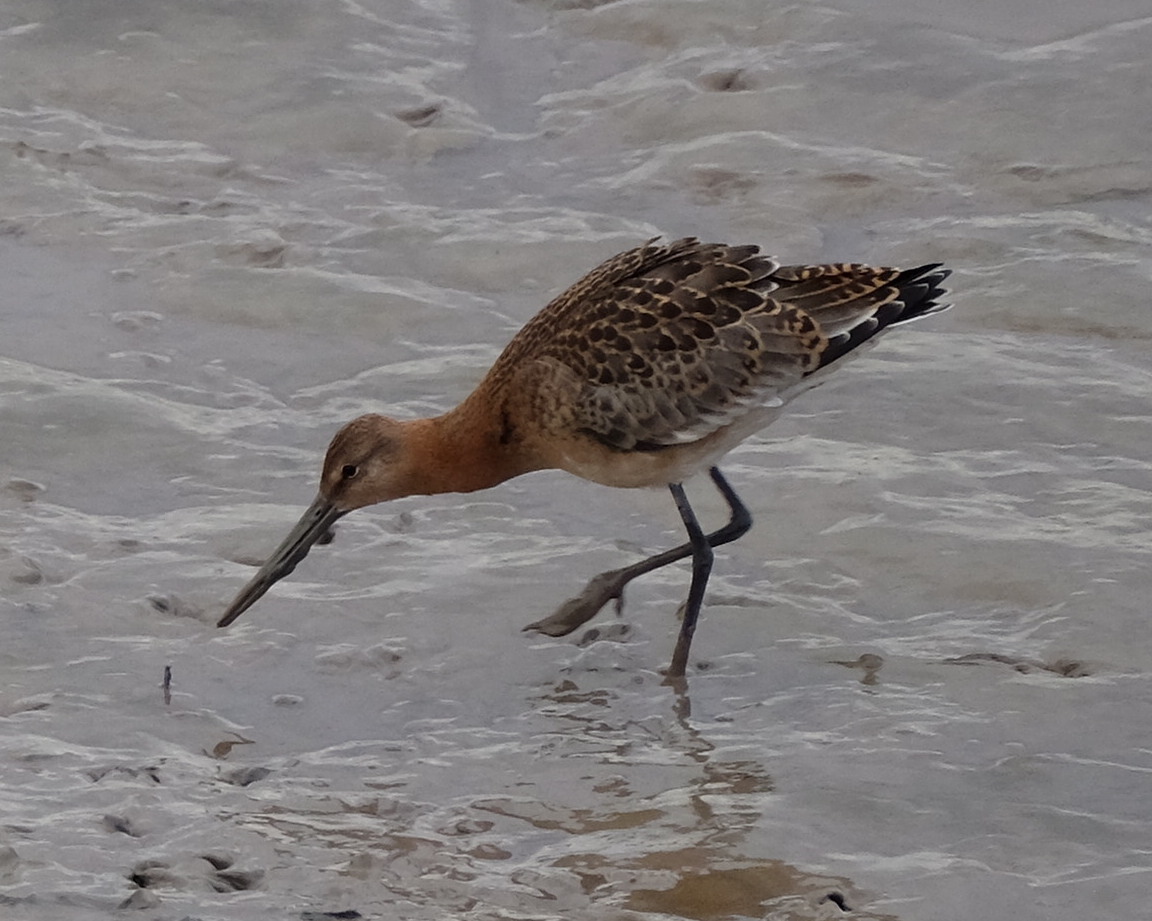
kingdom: Animalia
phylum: Chordata
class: Aves
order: Charadriiformes
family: Scolopacidae
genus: Limosa
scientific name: Limosa limosa
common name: Black-tailed godwit
